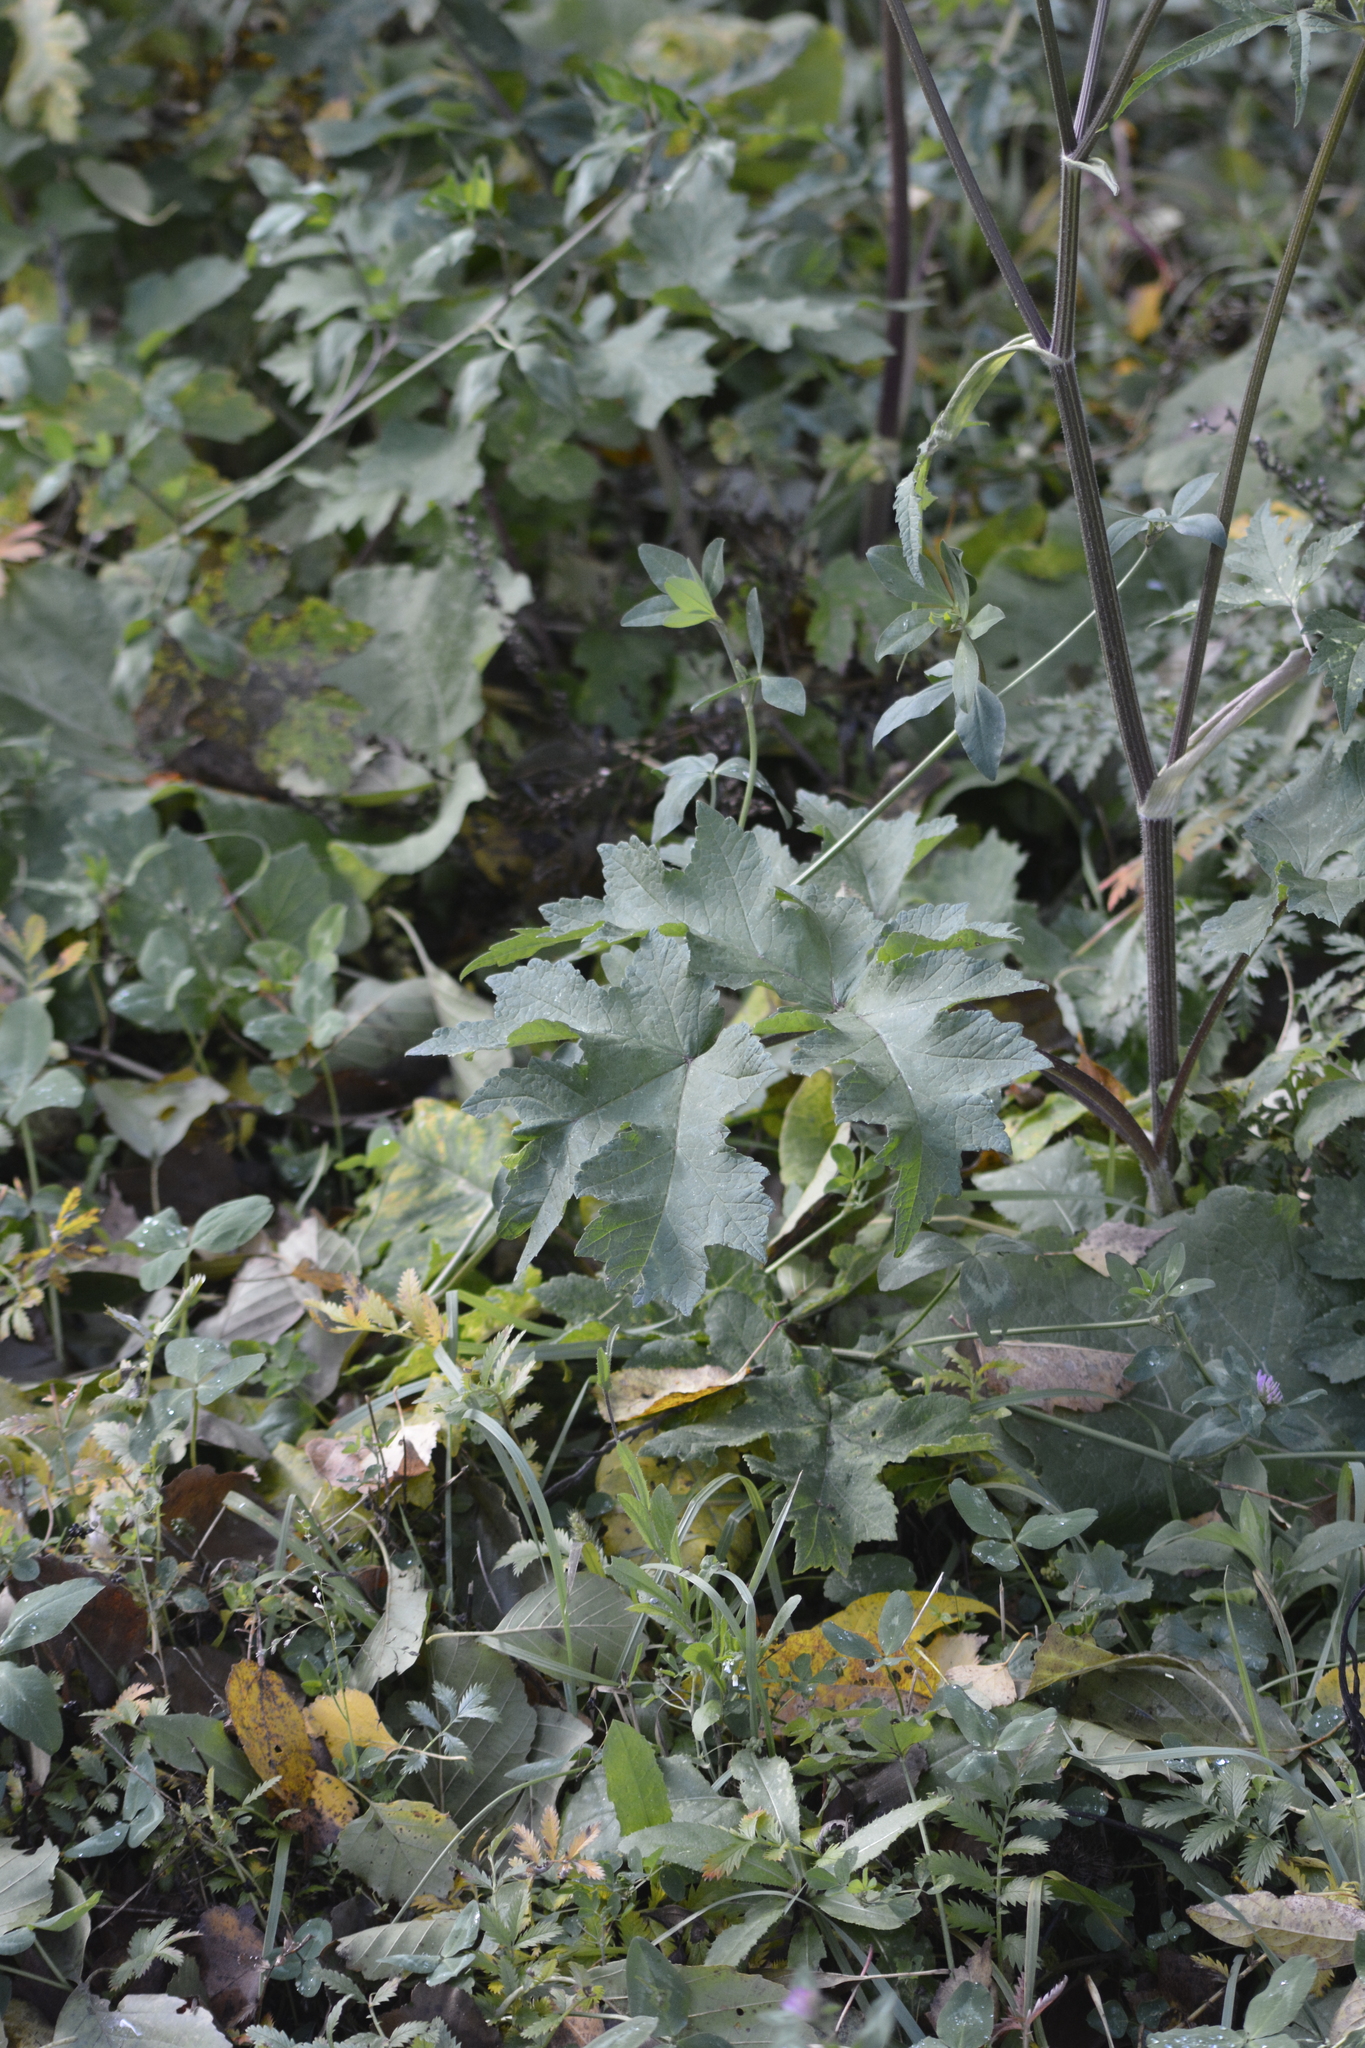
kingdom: Plantae
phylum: Tracheophyta
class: Magnoliopsida
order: Apiales
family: Apiaceae
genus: Heracleum
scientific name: Heracleum sphondylium
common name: Hogweed
